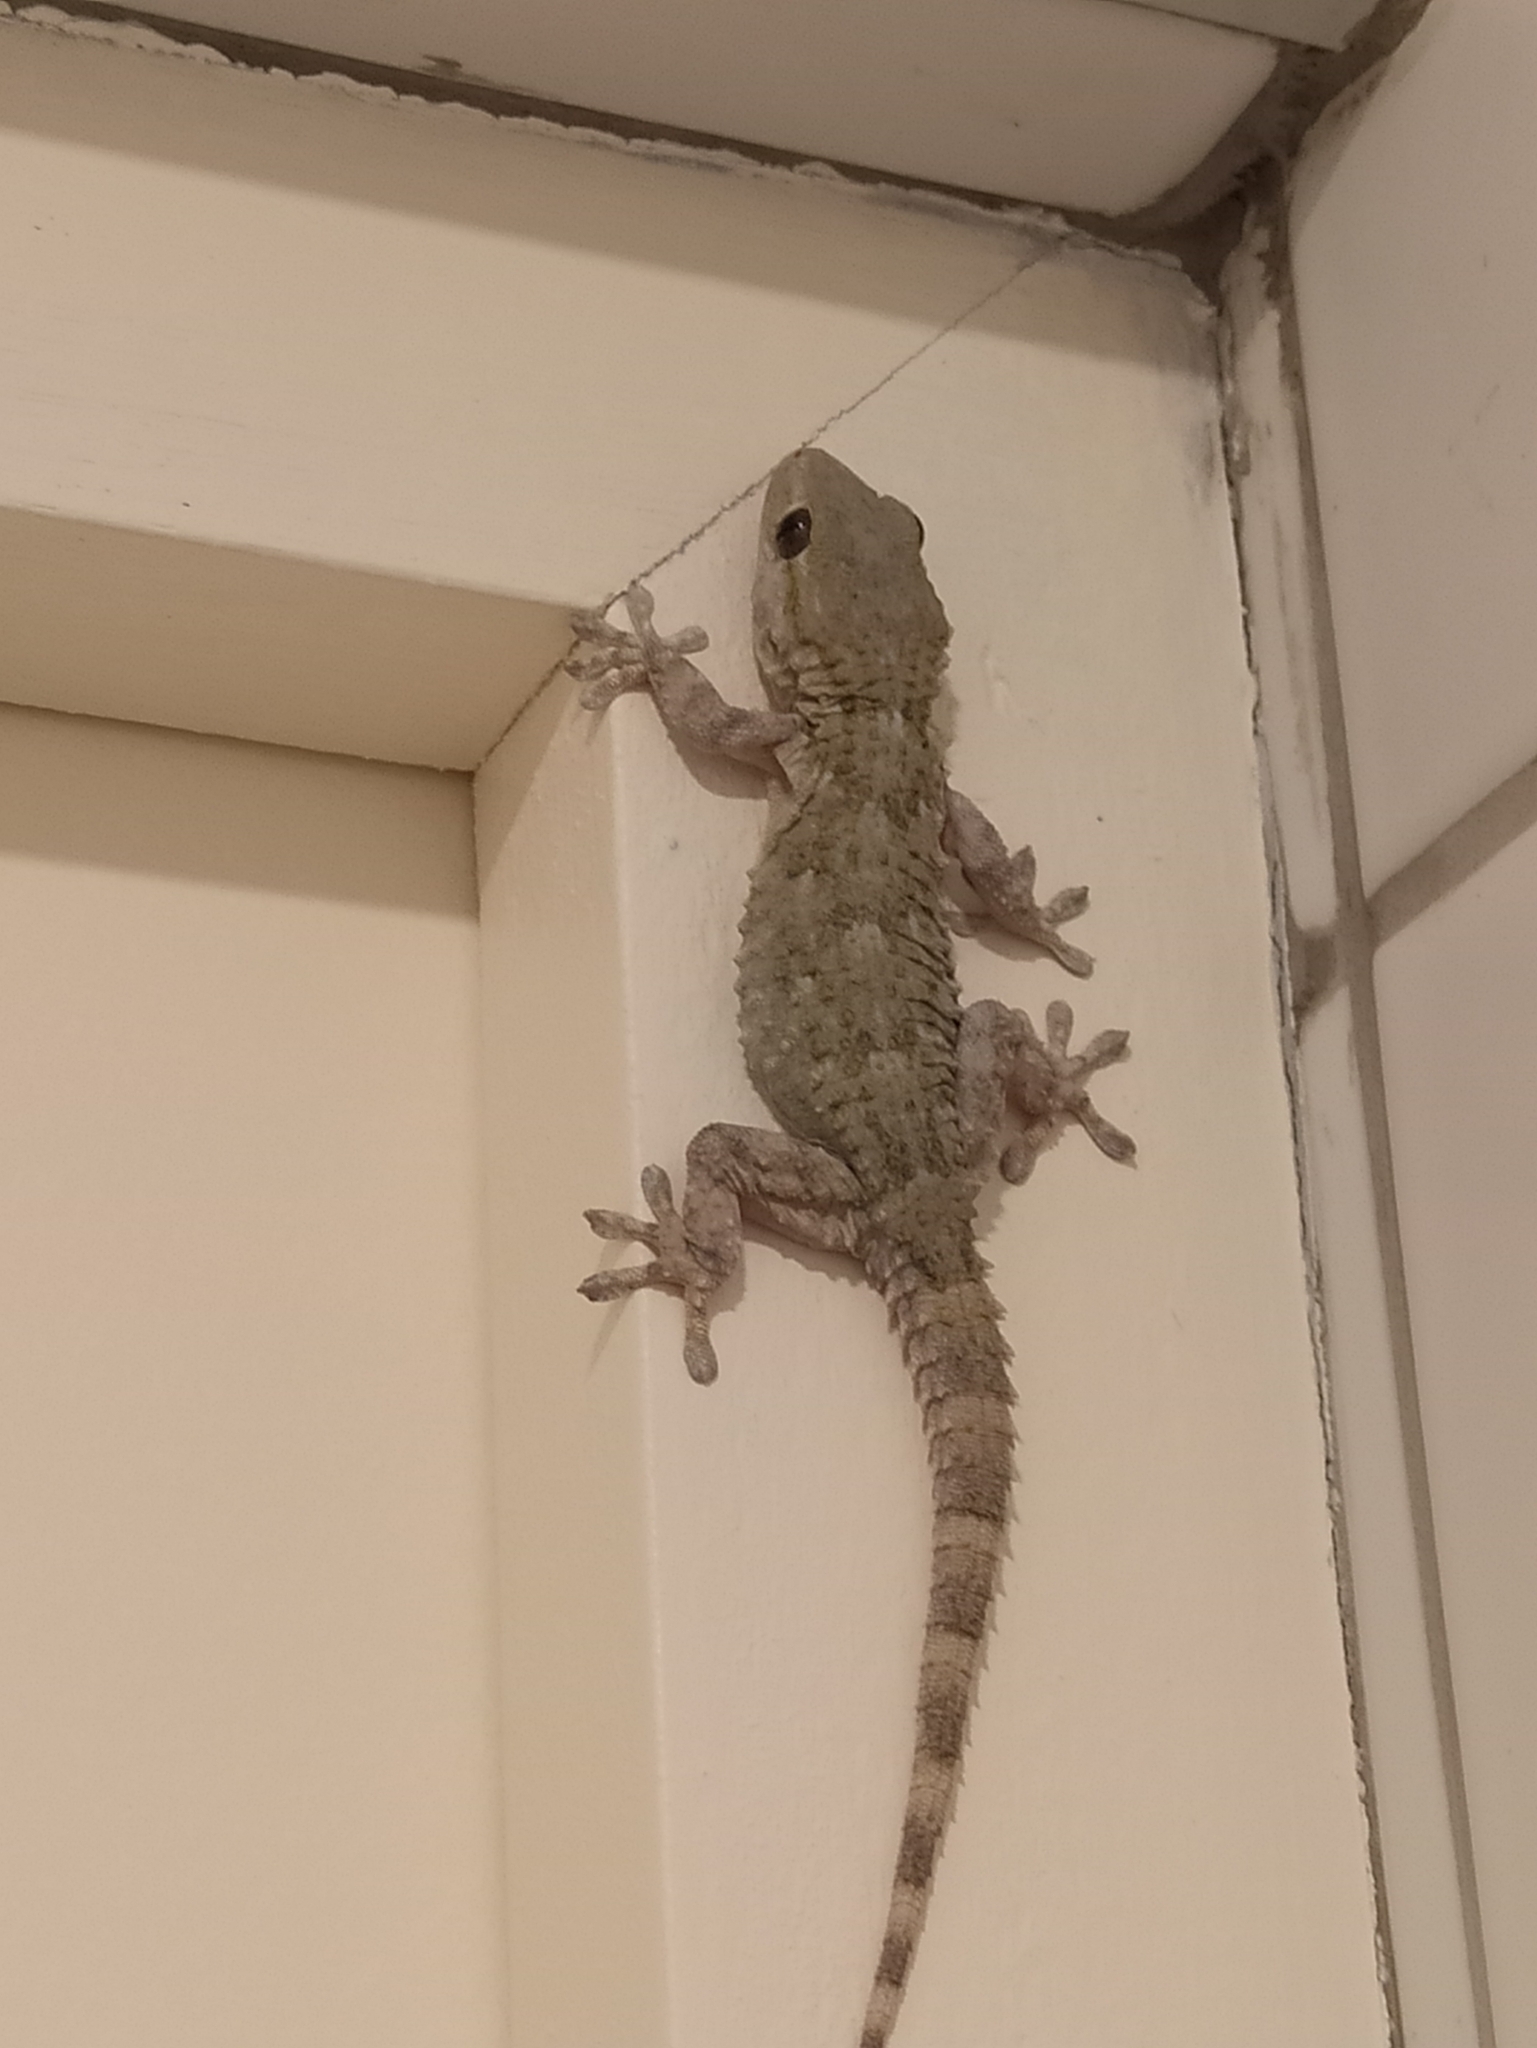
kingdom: Animalia
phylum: Chordata
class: Squamata
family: Phyllodactylidae
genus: Tarentola
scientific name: Tarentola mauritanica
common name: Moorish gecko
